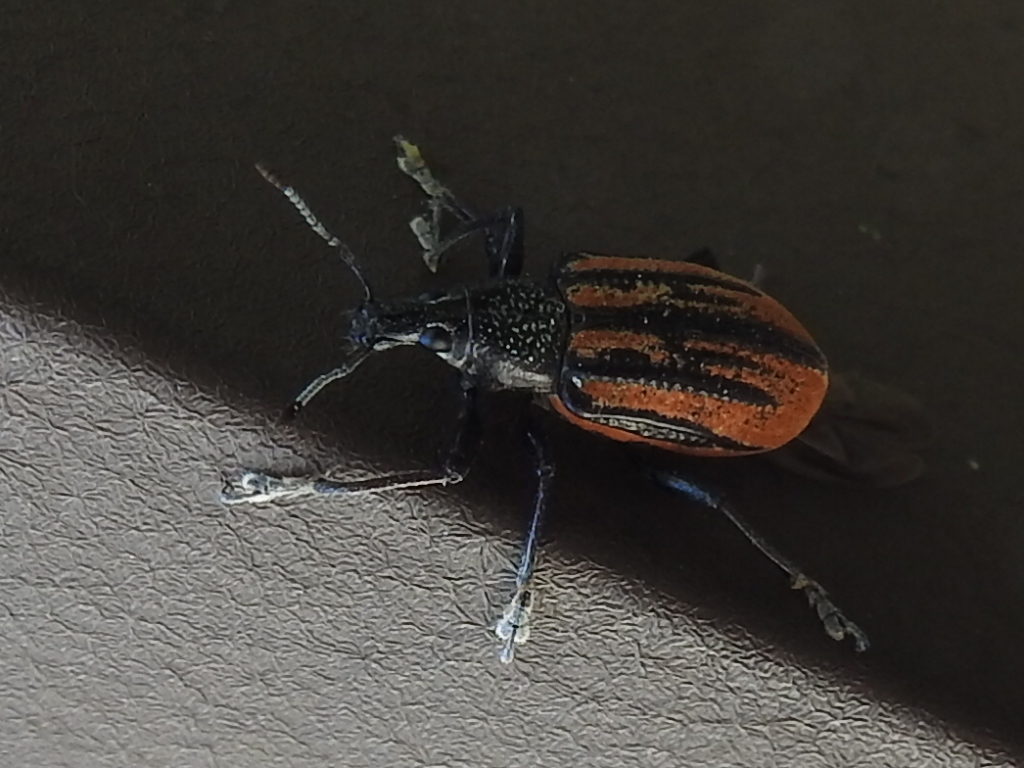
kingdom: Animalia
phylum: Arthropoda
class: Insecta
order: Coleoptera
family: Curculionidae
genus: Diaprepes
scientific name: Diaprepes abbreviatus
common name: Root weevil
